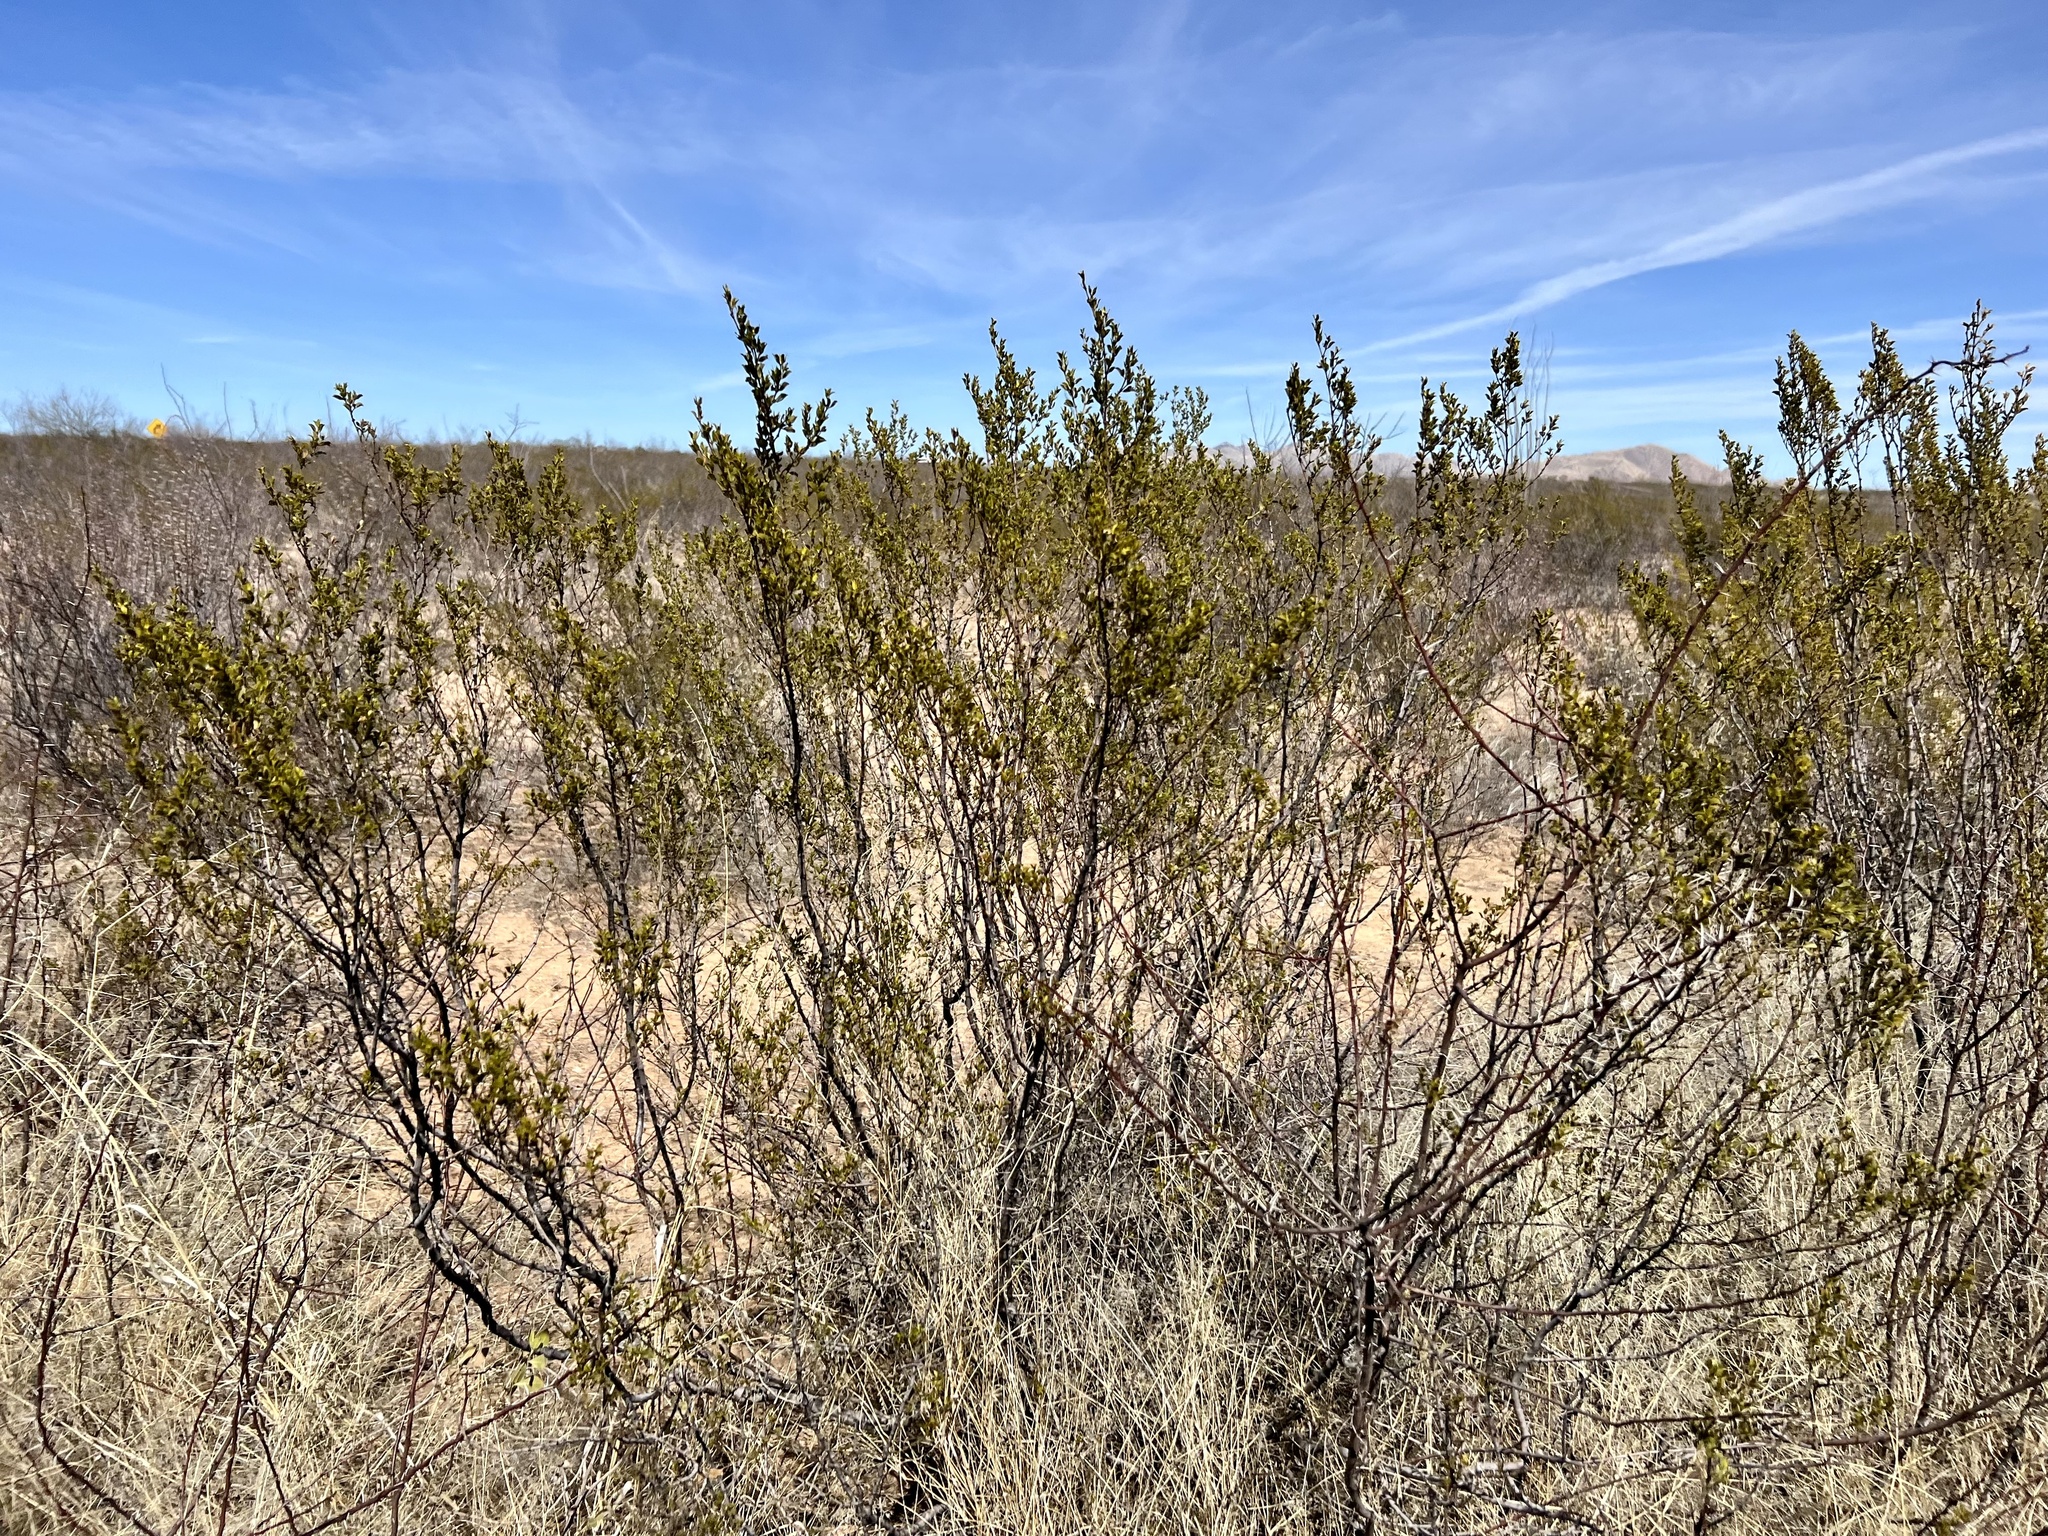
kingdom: Plantae
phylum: Tracheophyta
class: Magnoliopsida
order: Zygophyllales
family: Zygophyllaceae
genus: Larrea
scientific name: Larrea tridentata
